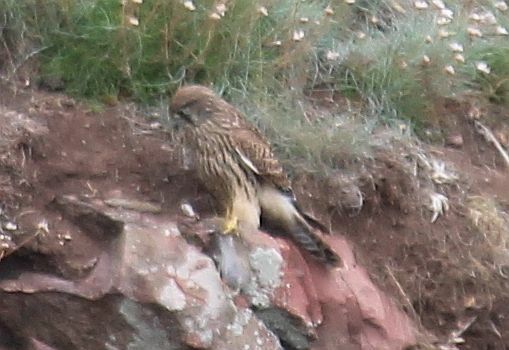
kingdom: Animalia
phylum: Chordata
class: Aves
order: Falconiformes
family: Falconidae
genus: Falco
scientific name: Falco tinnunculus
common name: Common kestrel
